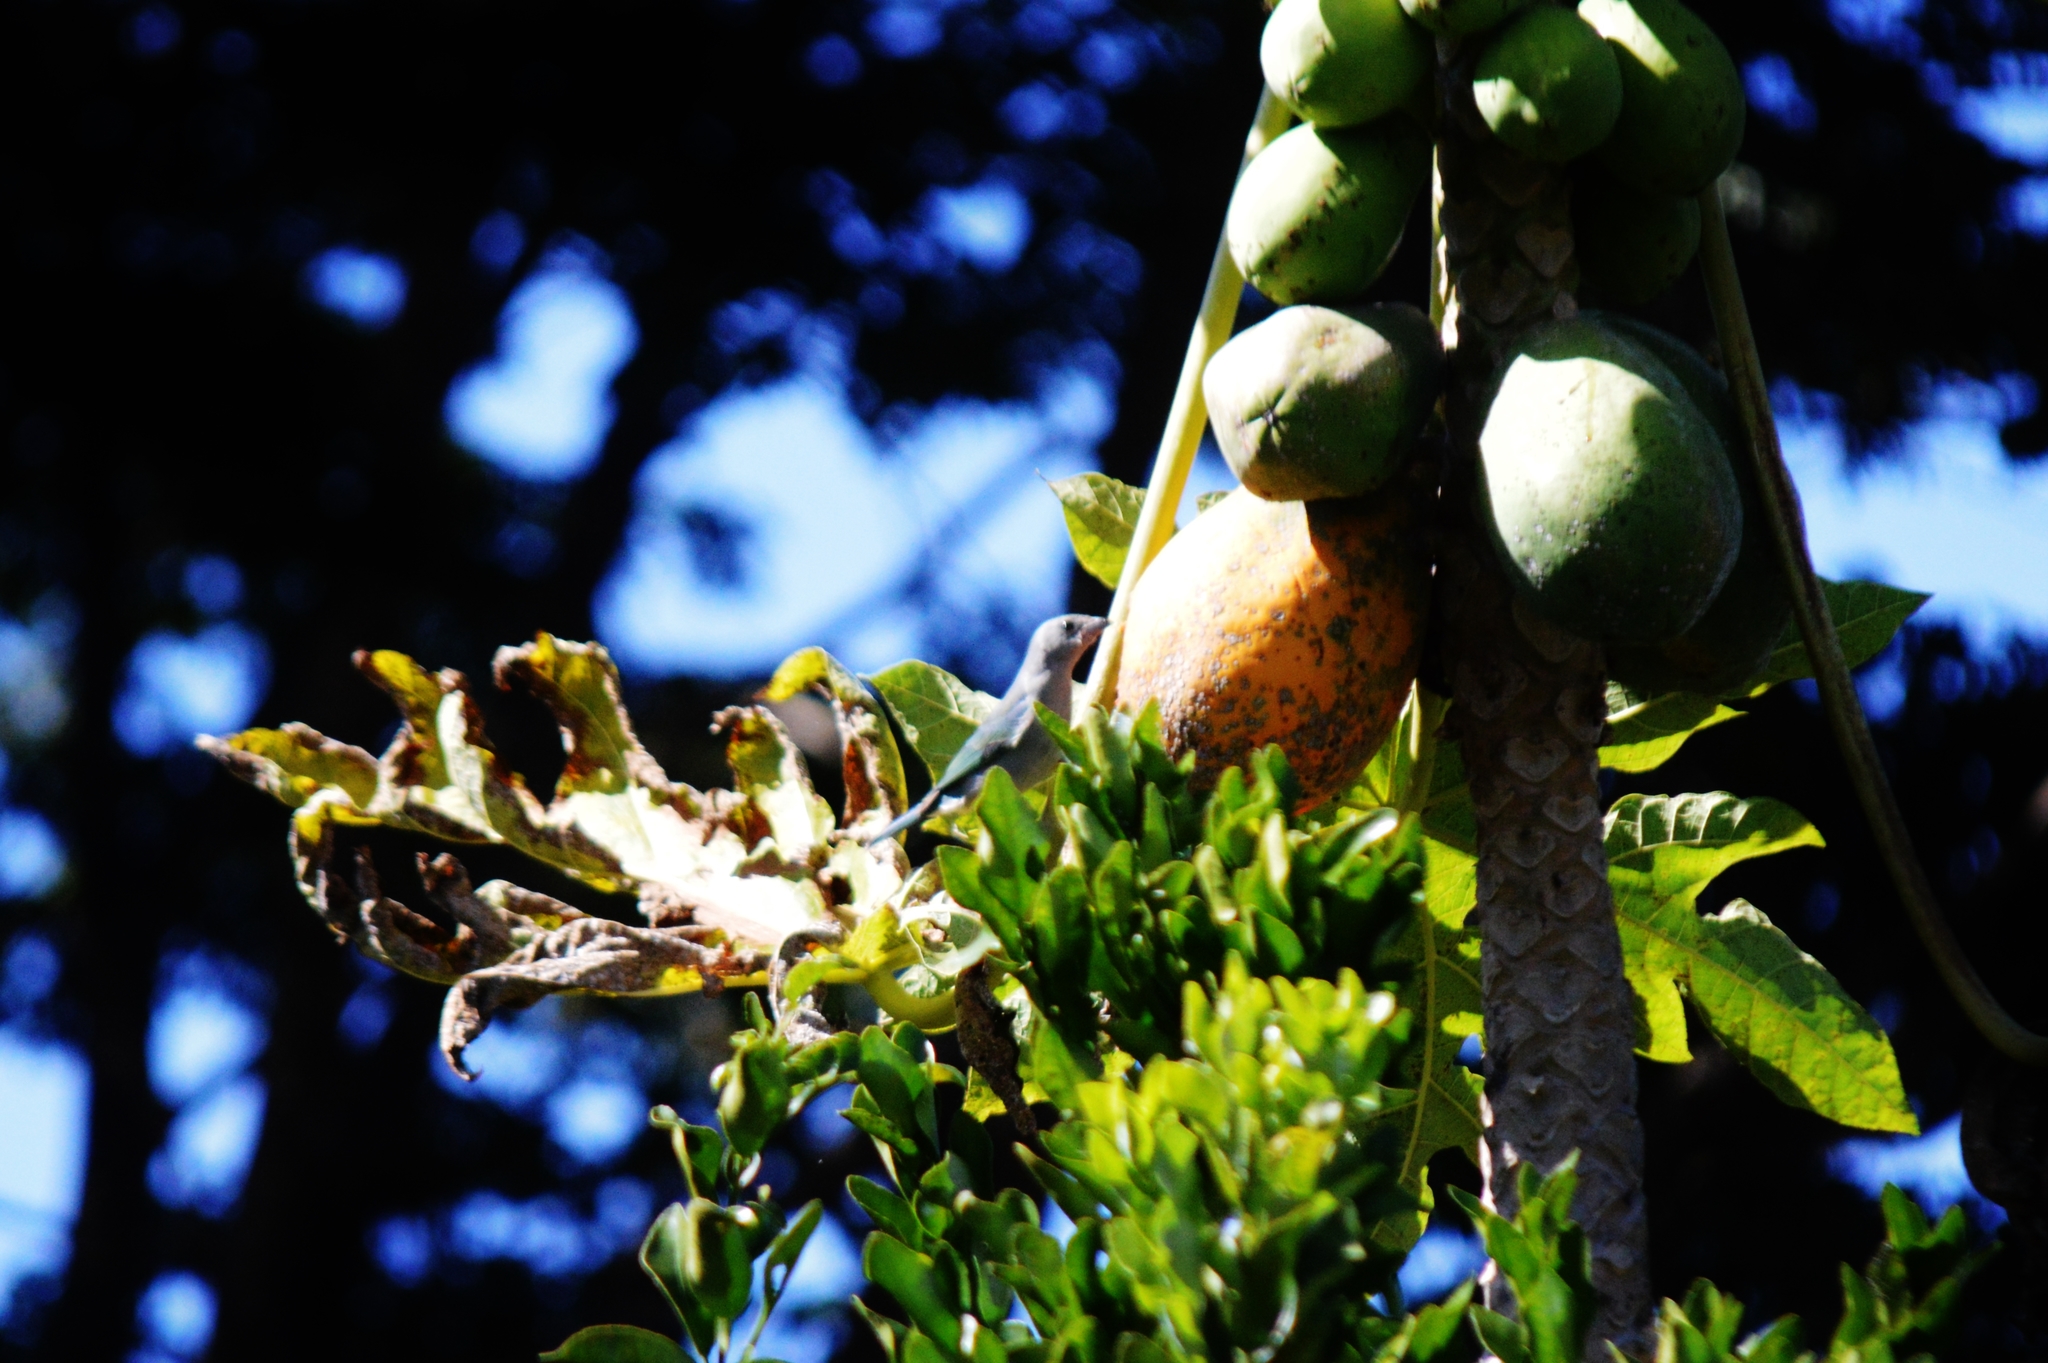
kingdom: Animalia
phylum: Chordata
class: Aves
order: Passeriformes
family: Thraupidae
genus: Thraupis
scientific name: Thraupis sayaca
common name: Sayaca tanager
